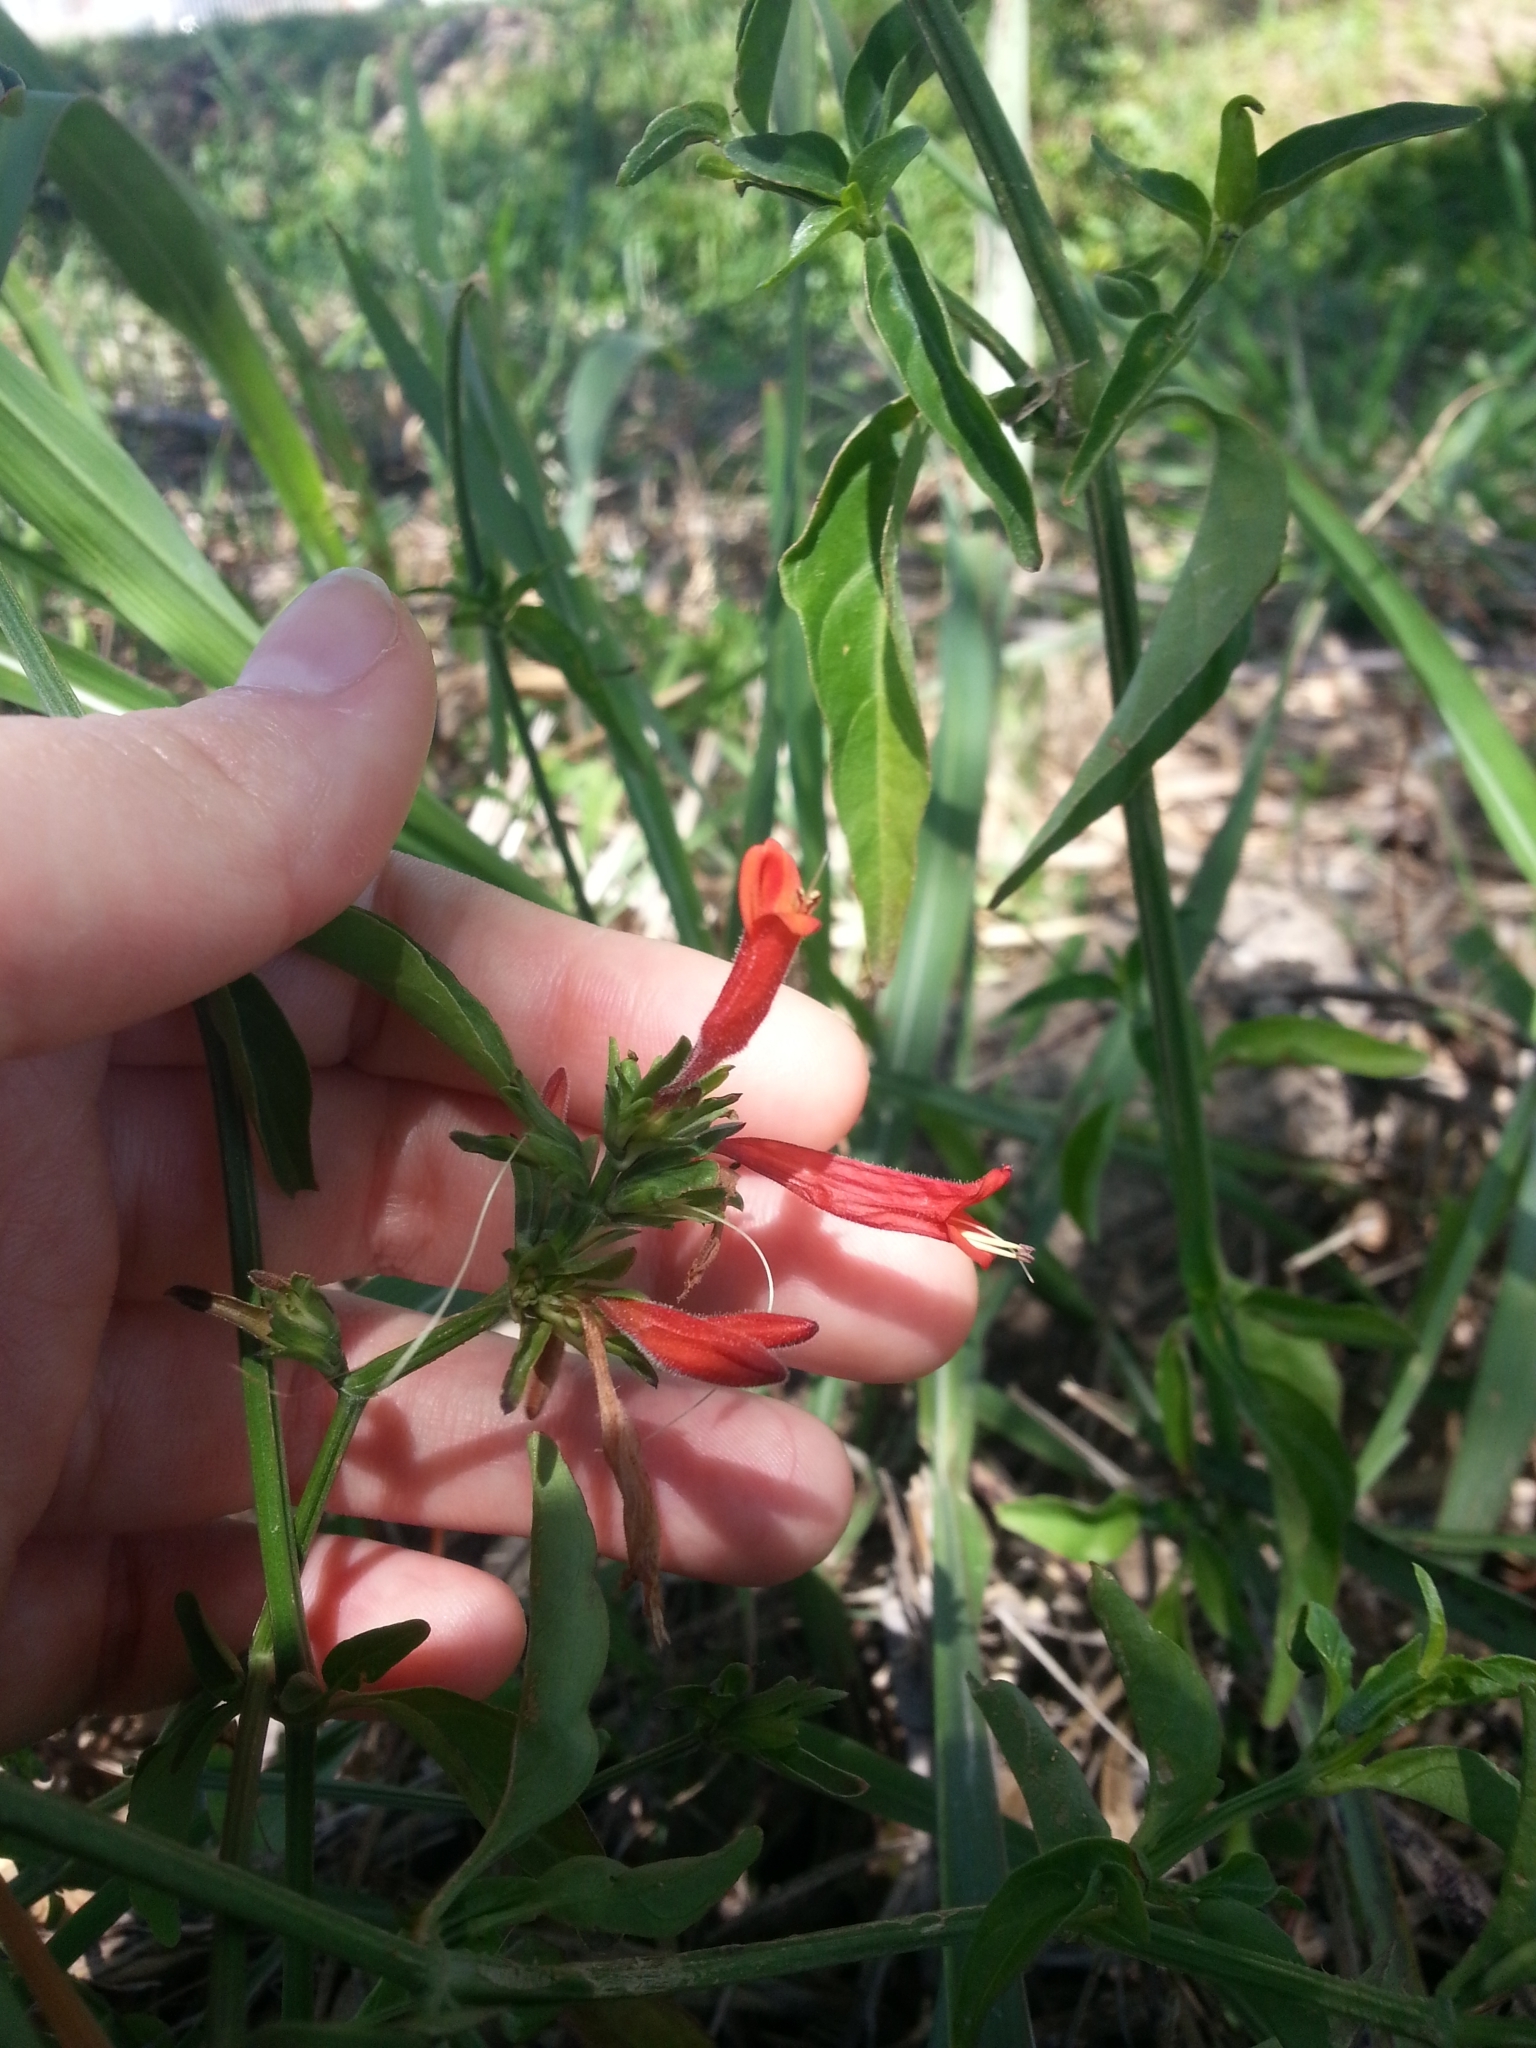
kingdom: Plantae
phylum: Tracheophyta
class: Magnoliopsida
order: Lamiales
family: Acanthaceae
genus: Dicliptera
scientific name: Dicliptera squarrosa
